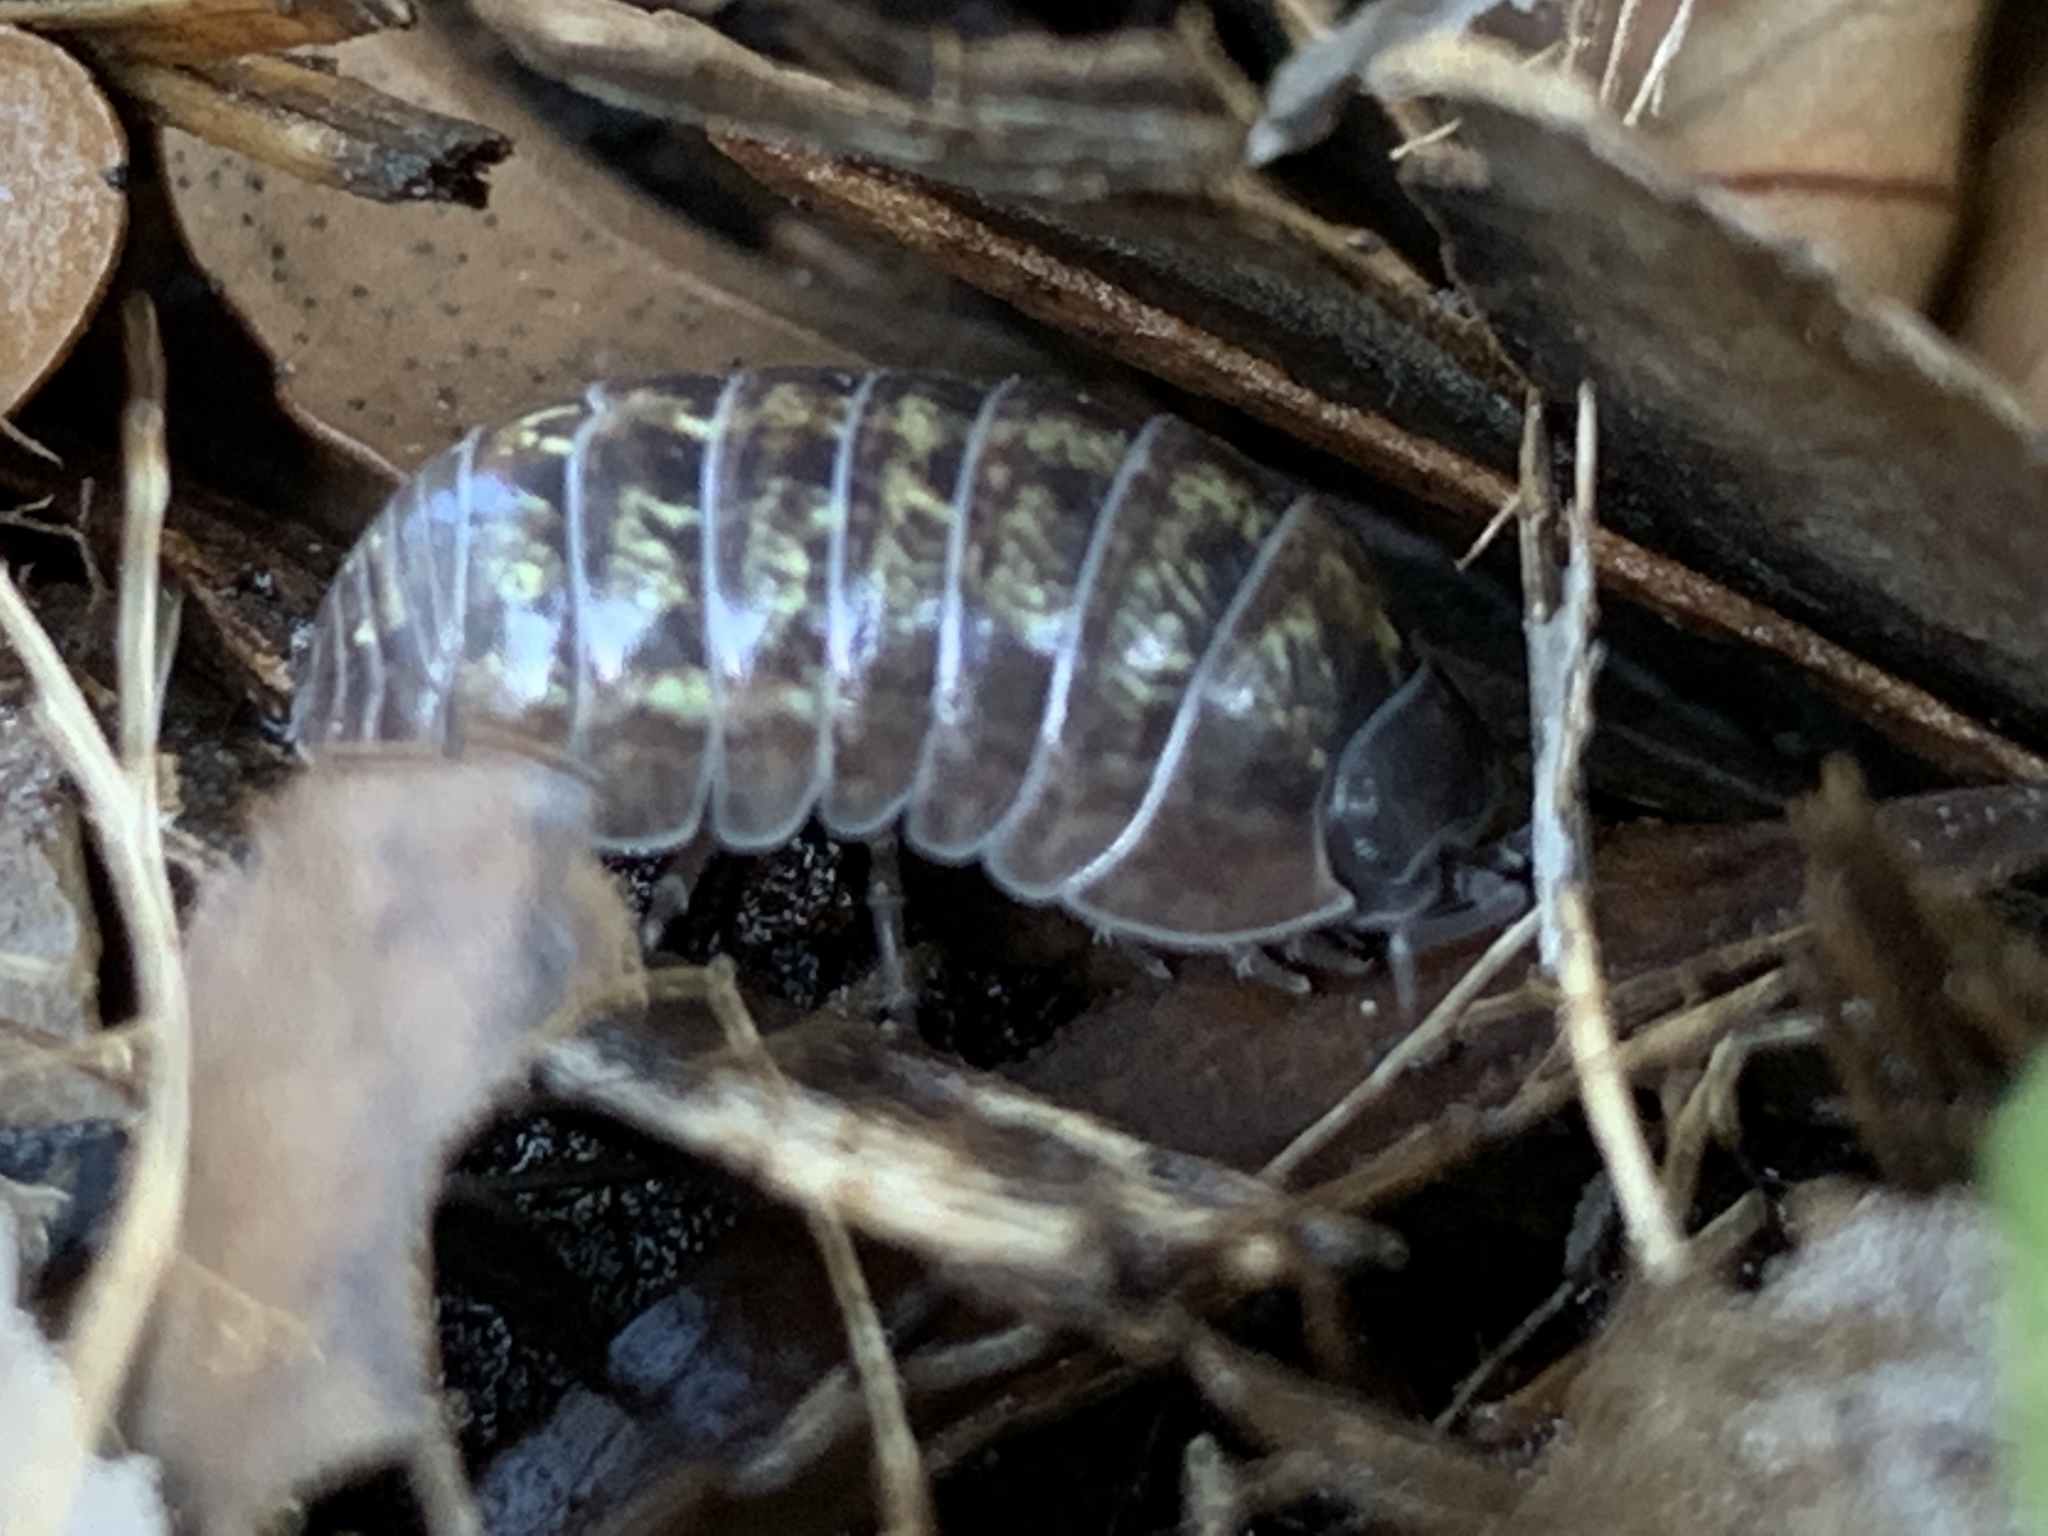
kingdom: Animalia
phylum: Arthropoda
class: Malacostraca
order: Isopoda
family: Armadillidiidae
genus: Armadillidium
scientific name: Armadillidium vulgare
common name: Common pill woodlouse
